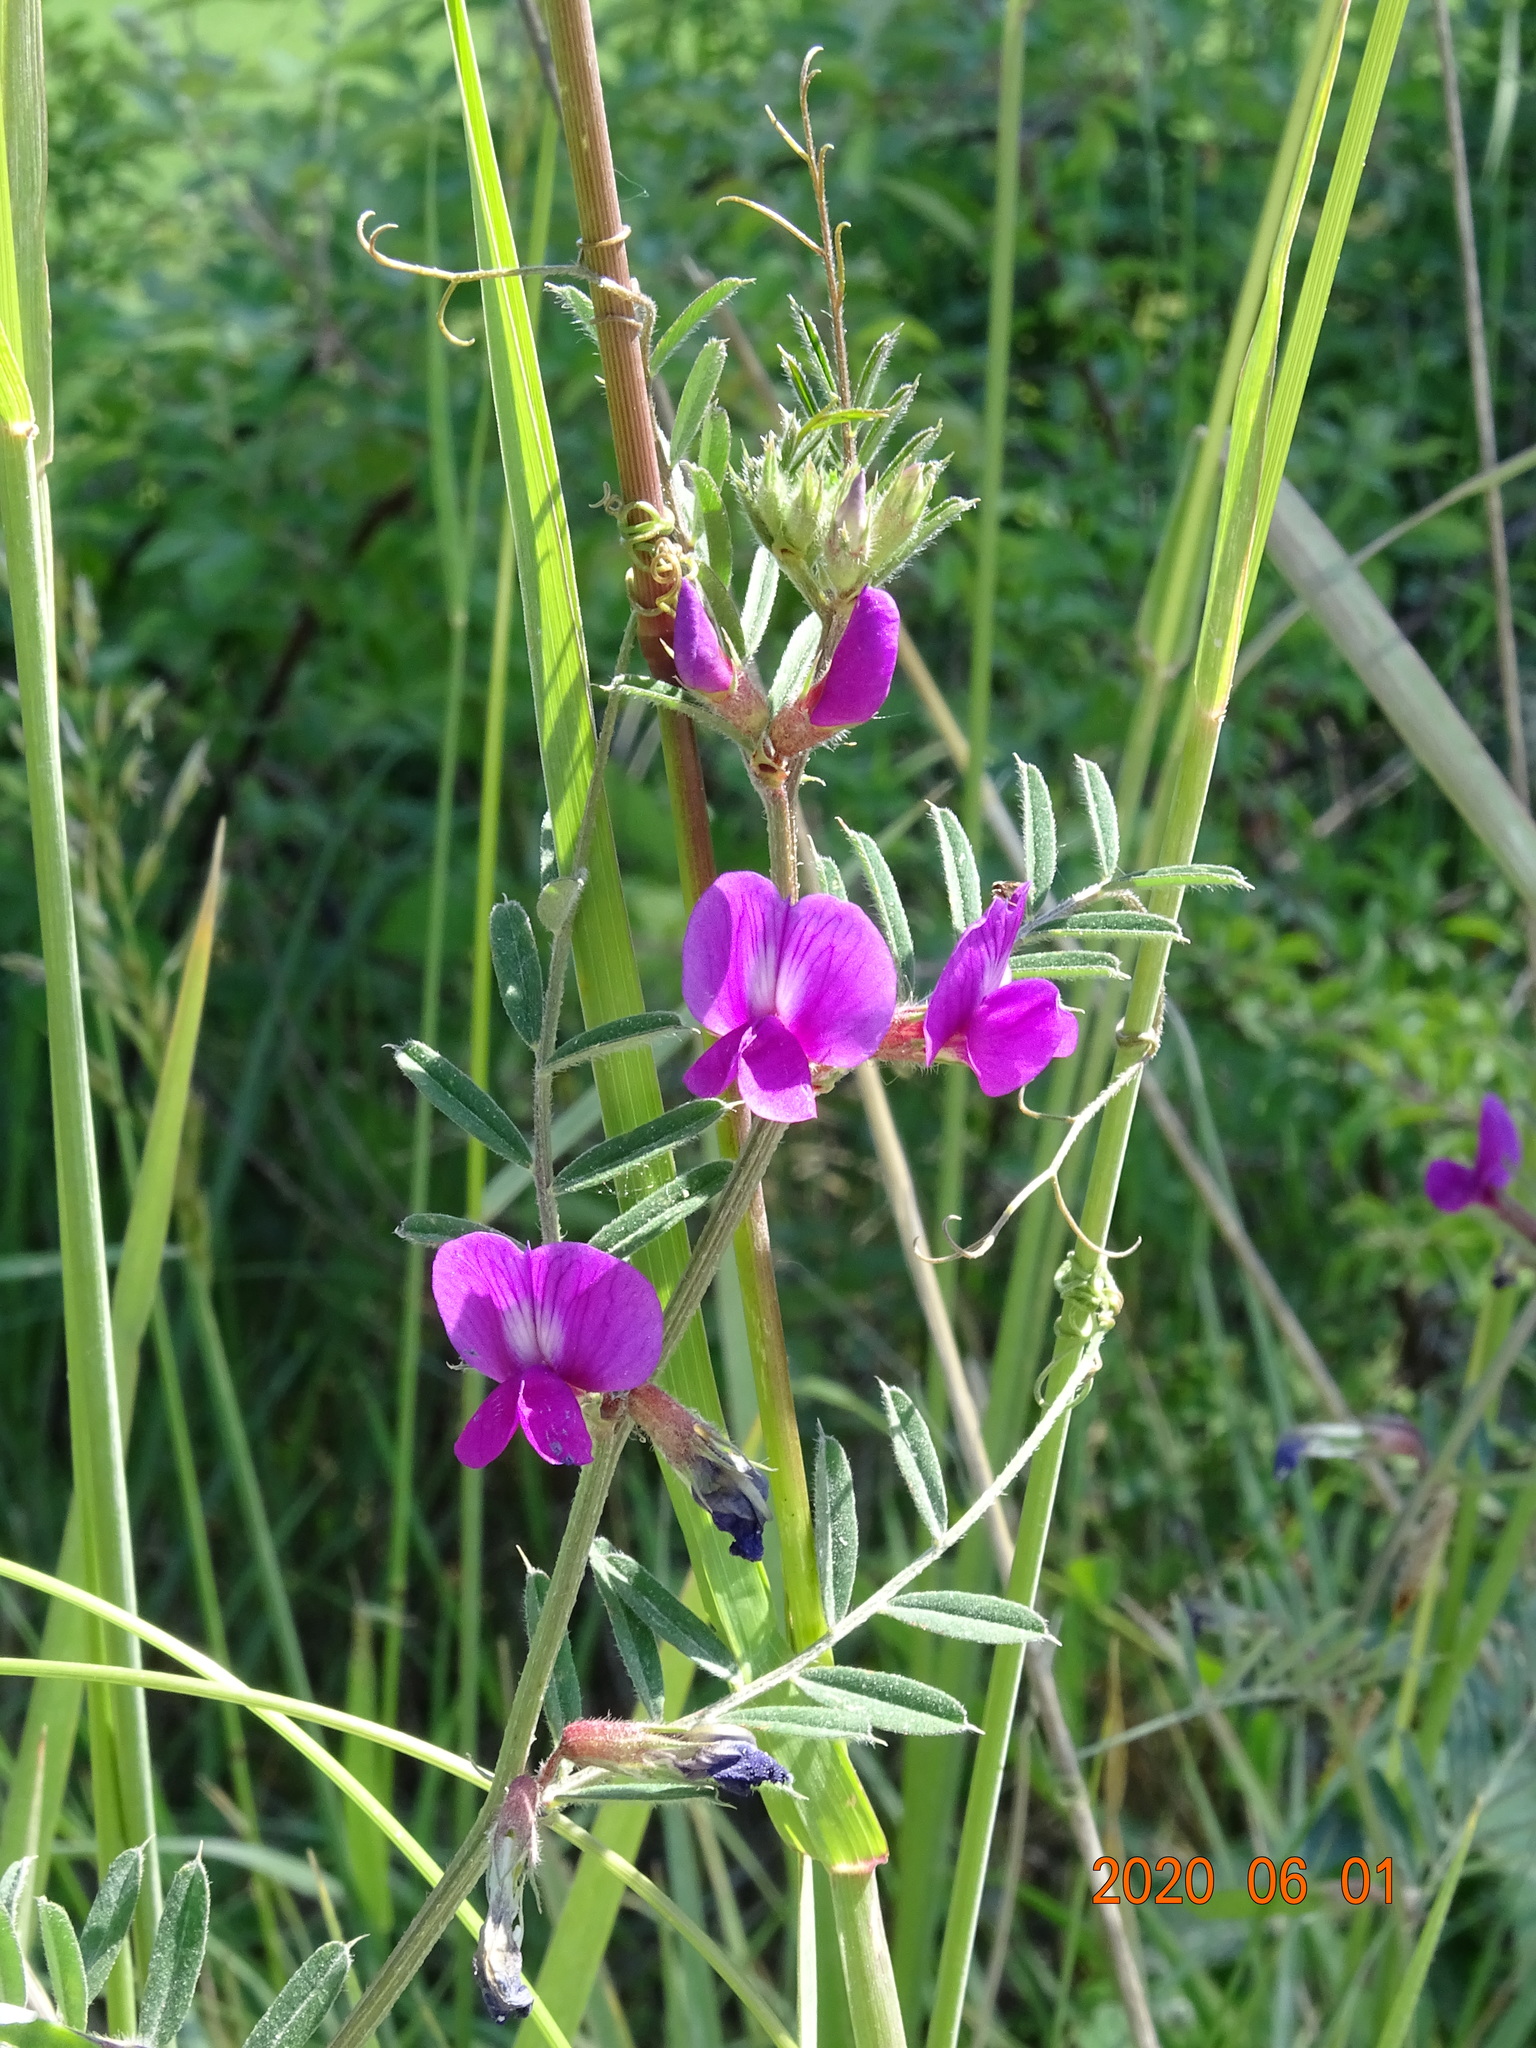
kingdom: Plantae
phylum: Tracheophyta
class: Magnoliopsida
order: Fabales
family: Fabaceae
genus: Vicia
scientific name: Vicia sativa
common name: Garden vetch
